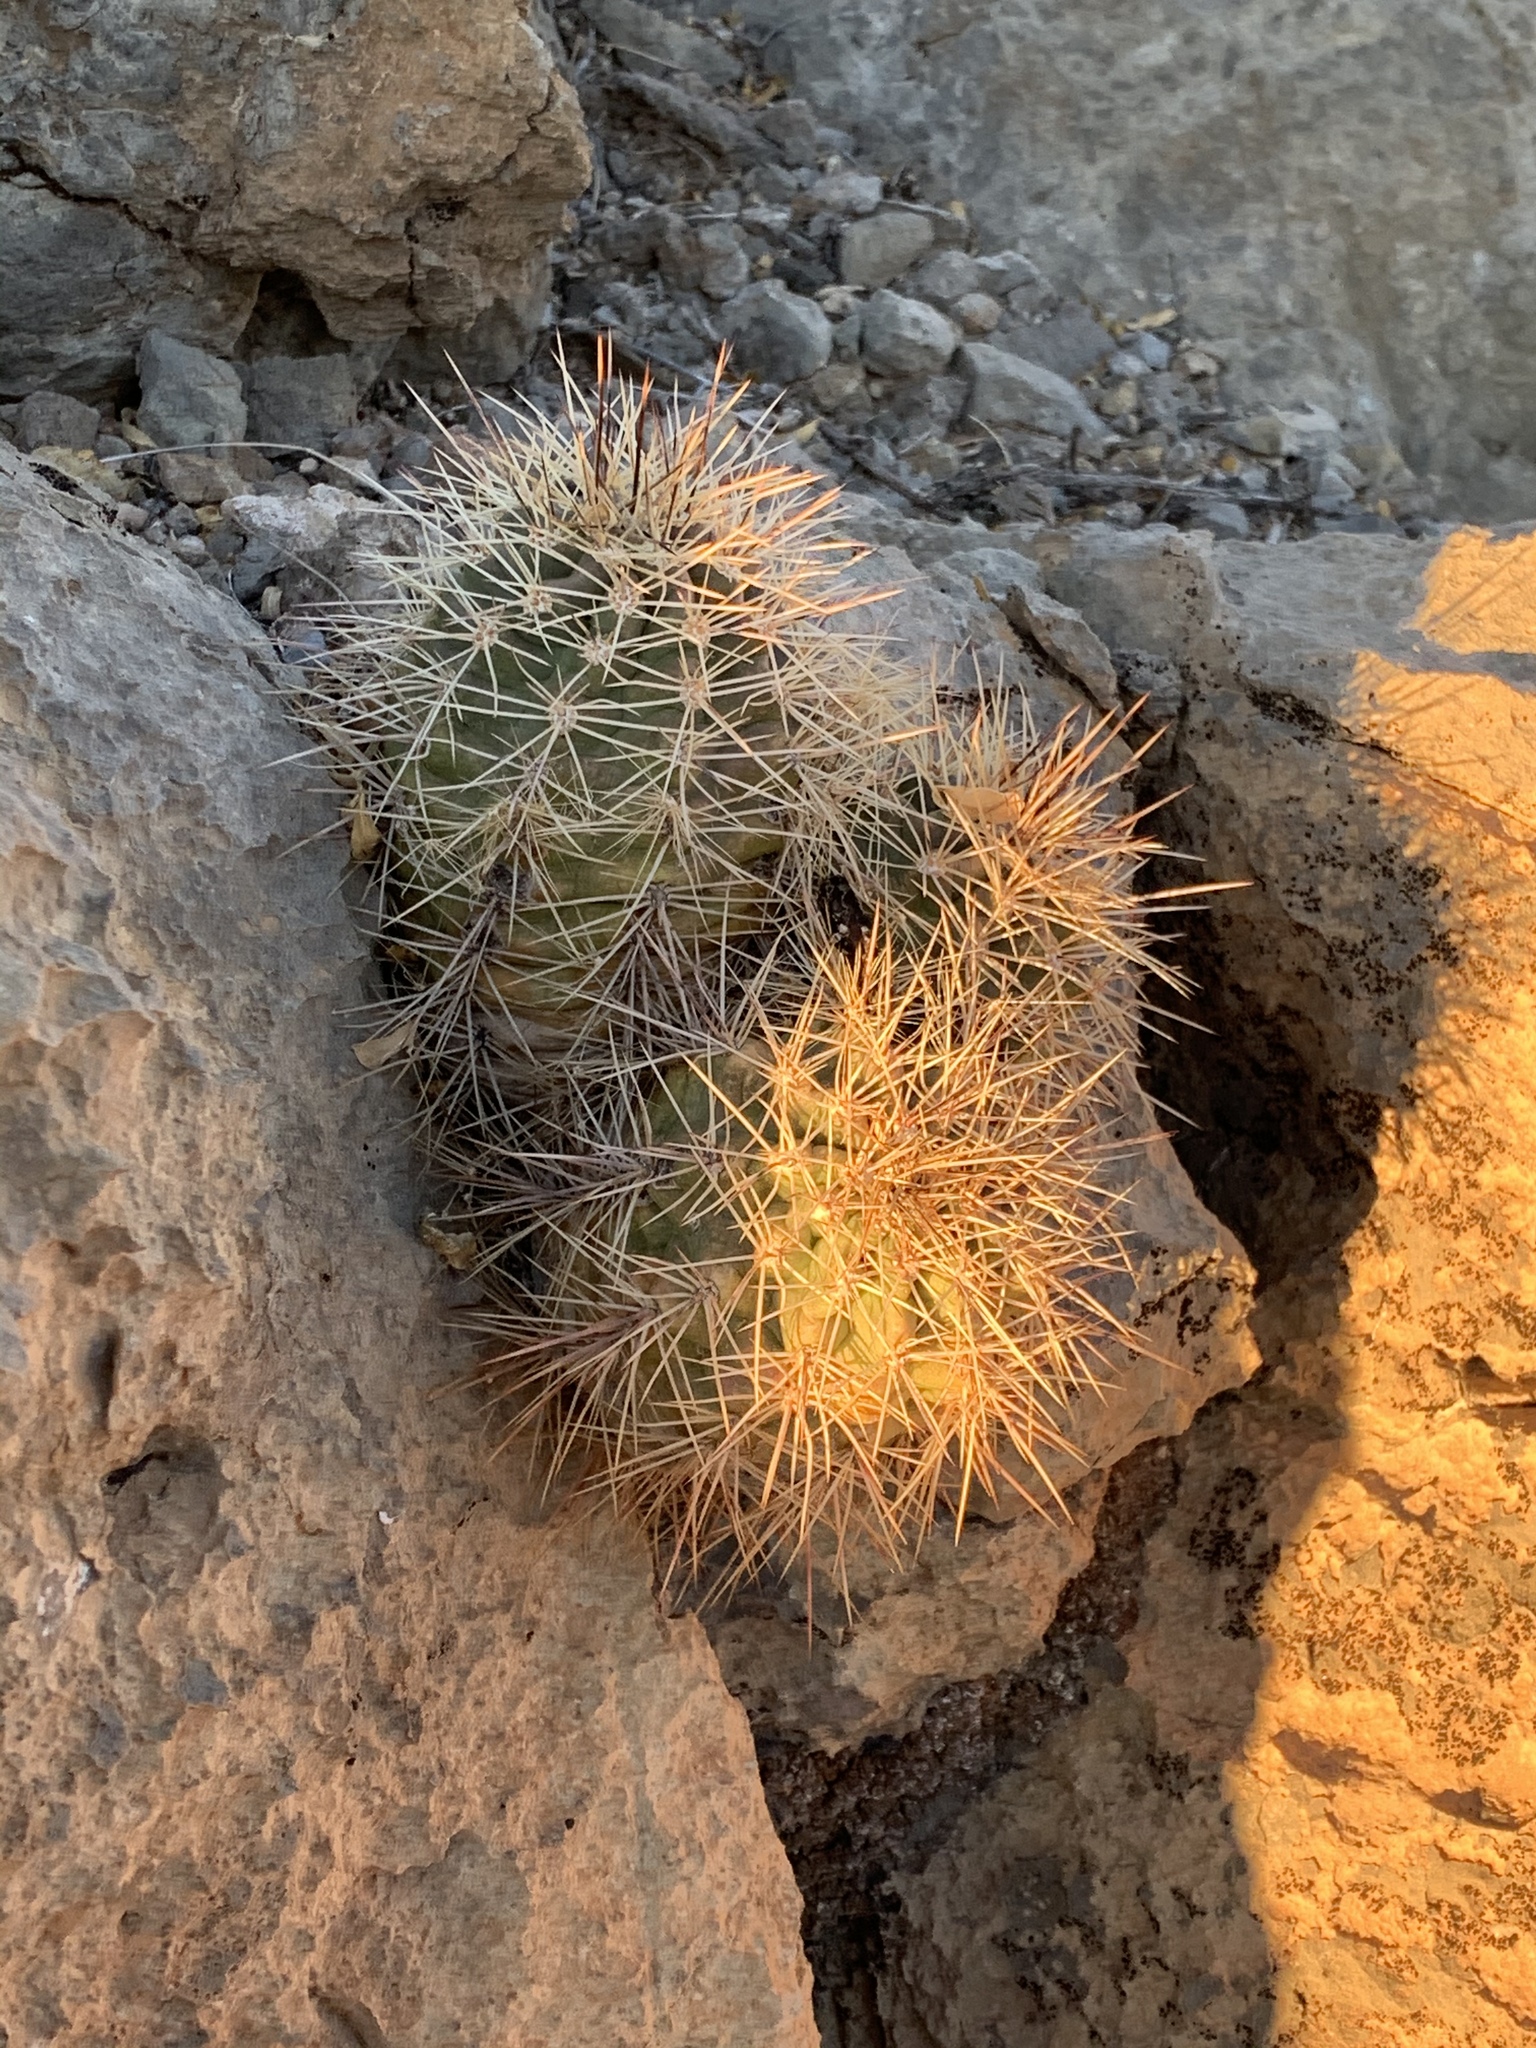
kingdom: Plantae
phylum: Tracheophyta
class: Magnoliopsida
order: Caryophyllales
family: Cactaceae
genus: Echinocereus
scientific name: Echinocereus coccineus
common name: Scarlet hedgehog cactus
